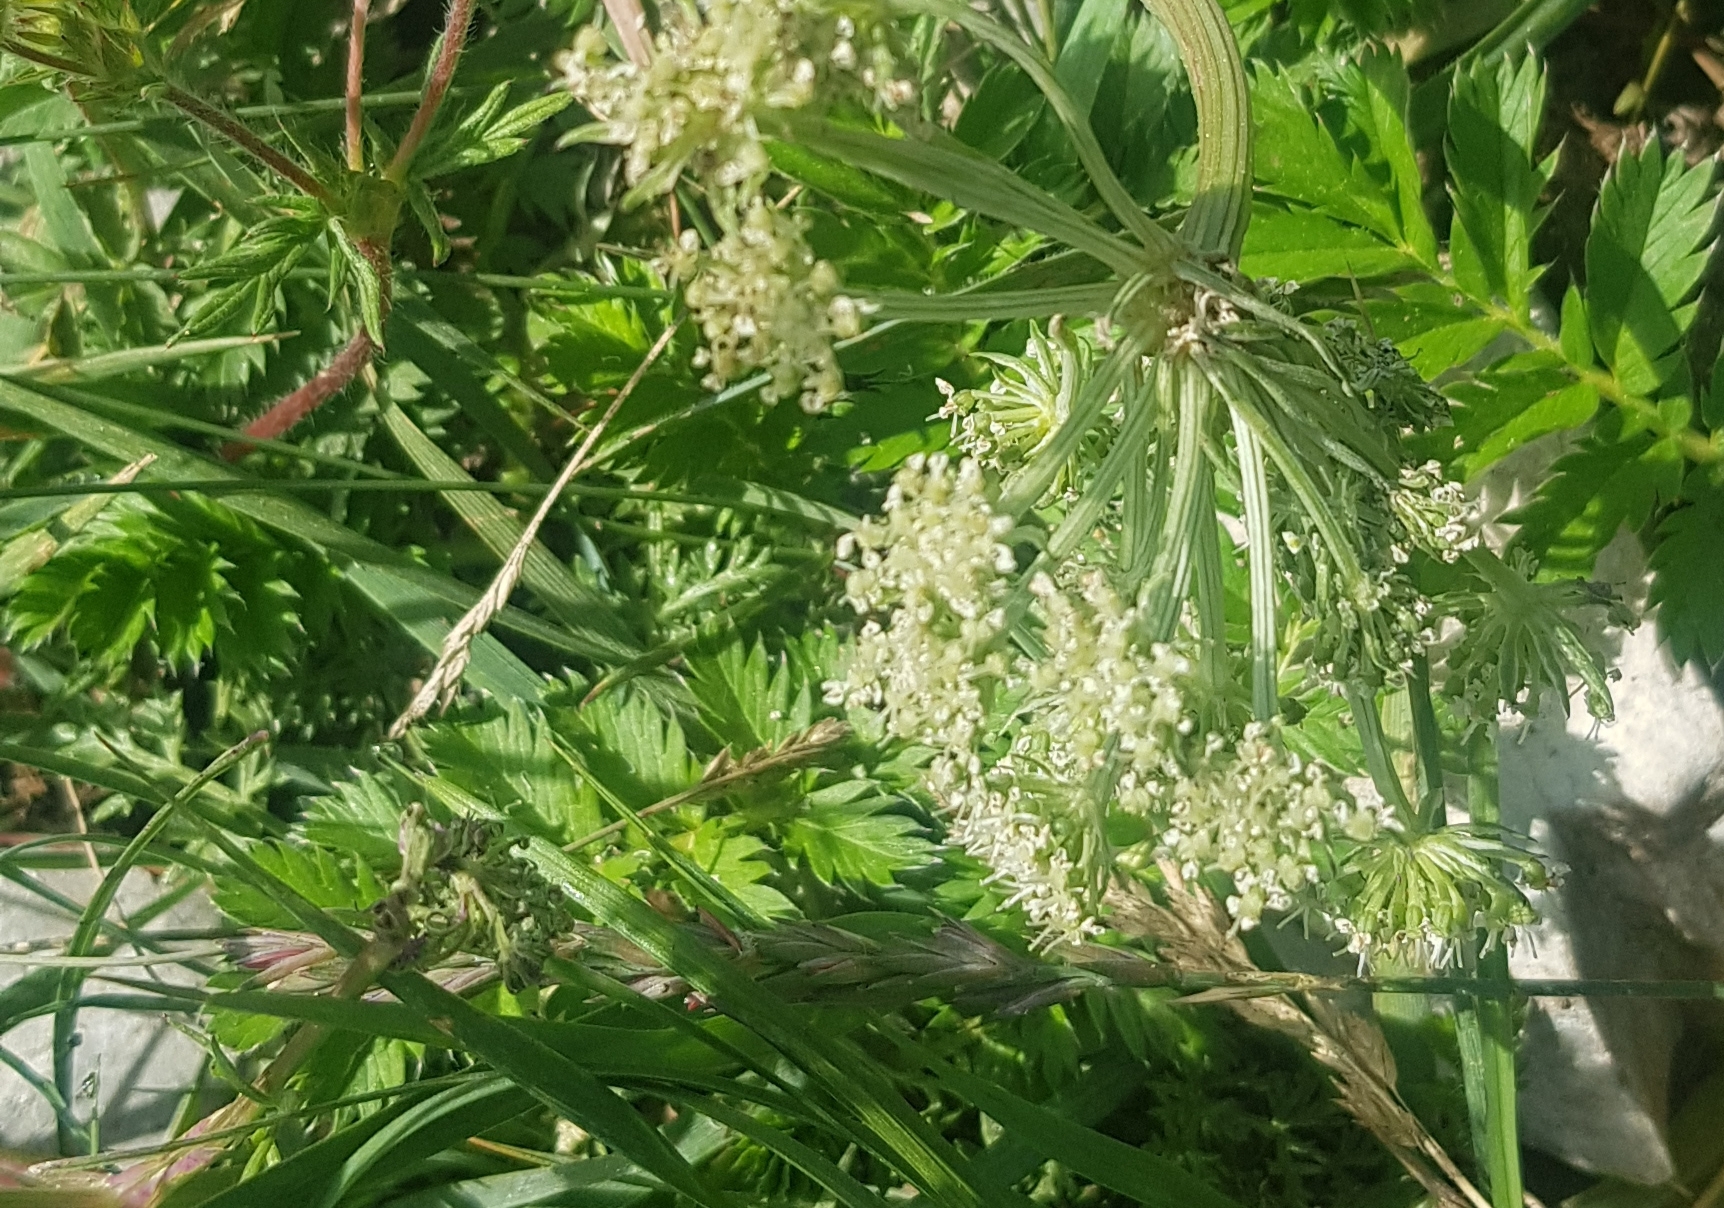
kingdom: Plantae
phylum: Tracheophyta
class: Magnoliopsida
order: Apiales
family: Apiaceae
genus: Pleurospermum
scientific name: Pleurospermum uralense
